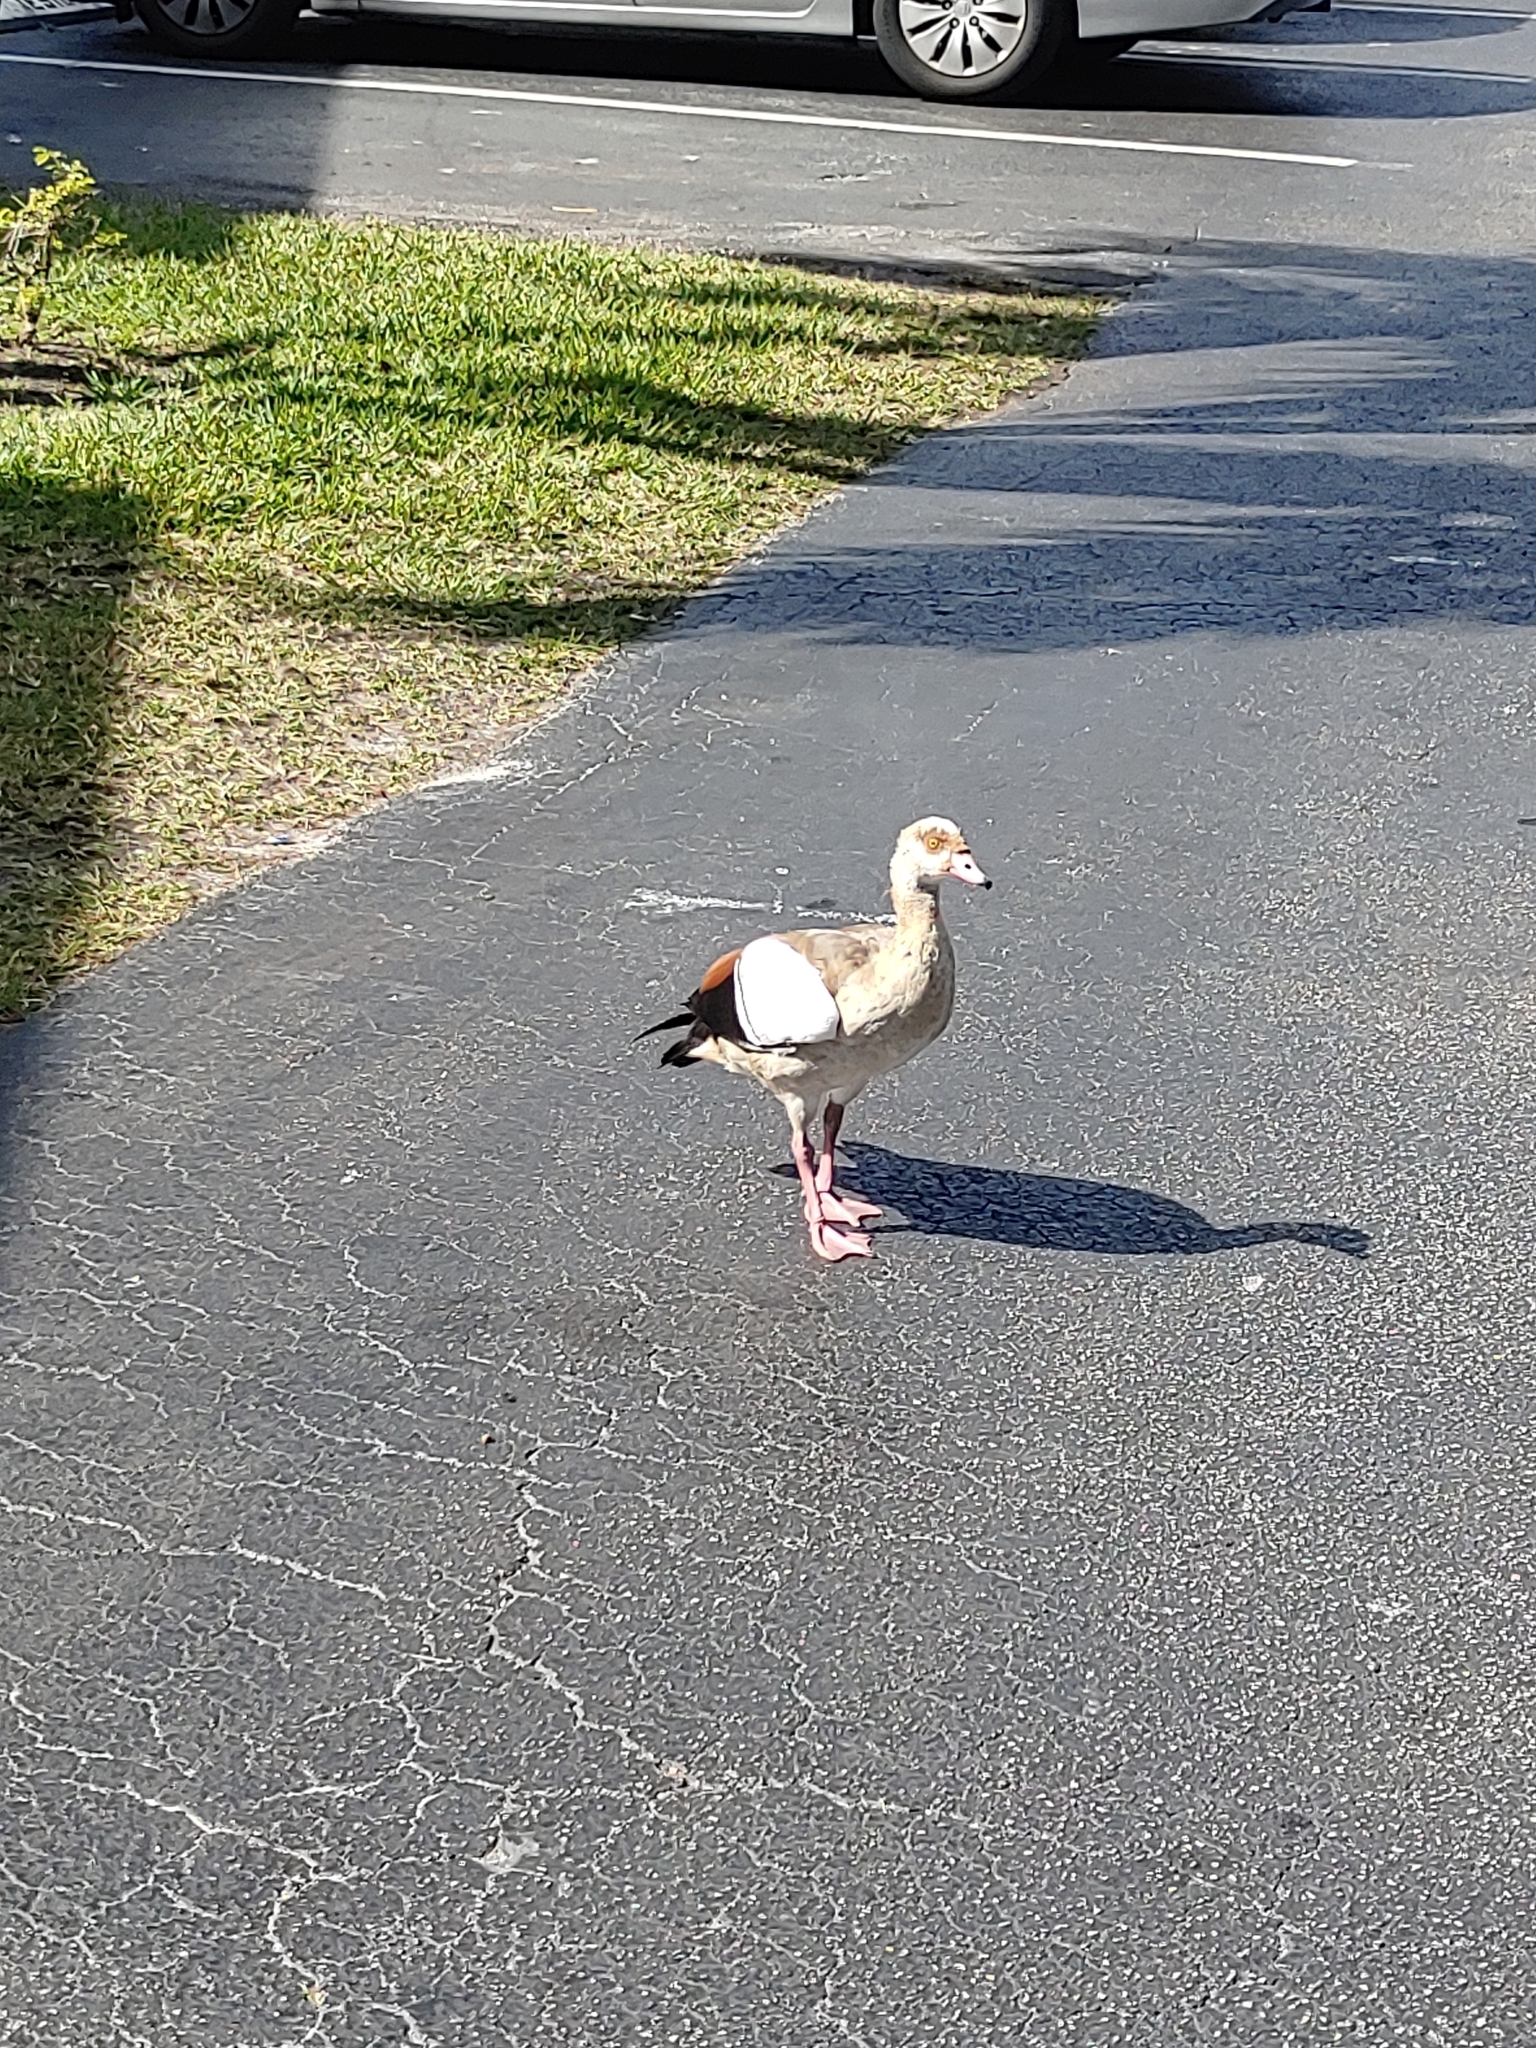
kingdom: Animalia
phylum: Chordata
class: Aves
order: Anseriformes
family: Anatidae
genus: Alopochen
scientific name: Alopochen aegyptiaca
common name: Egyptian goose
